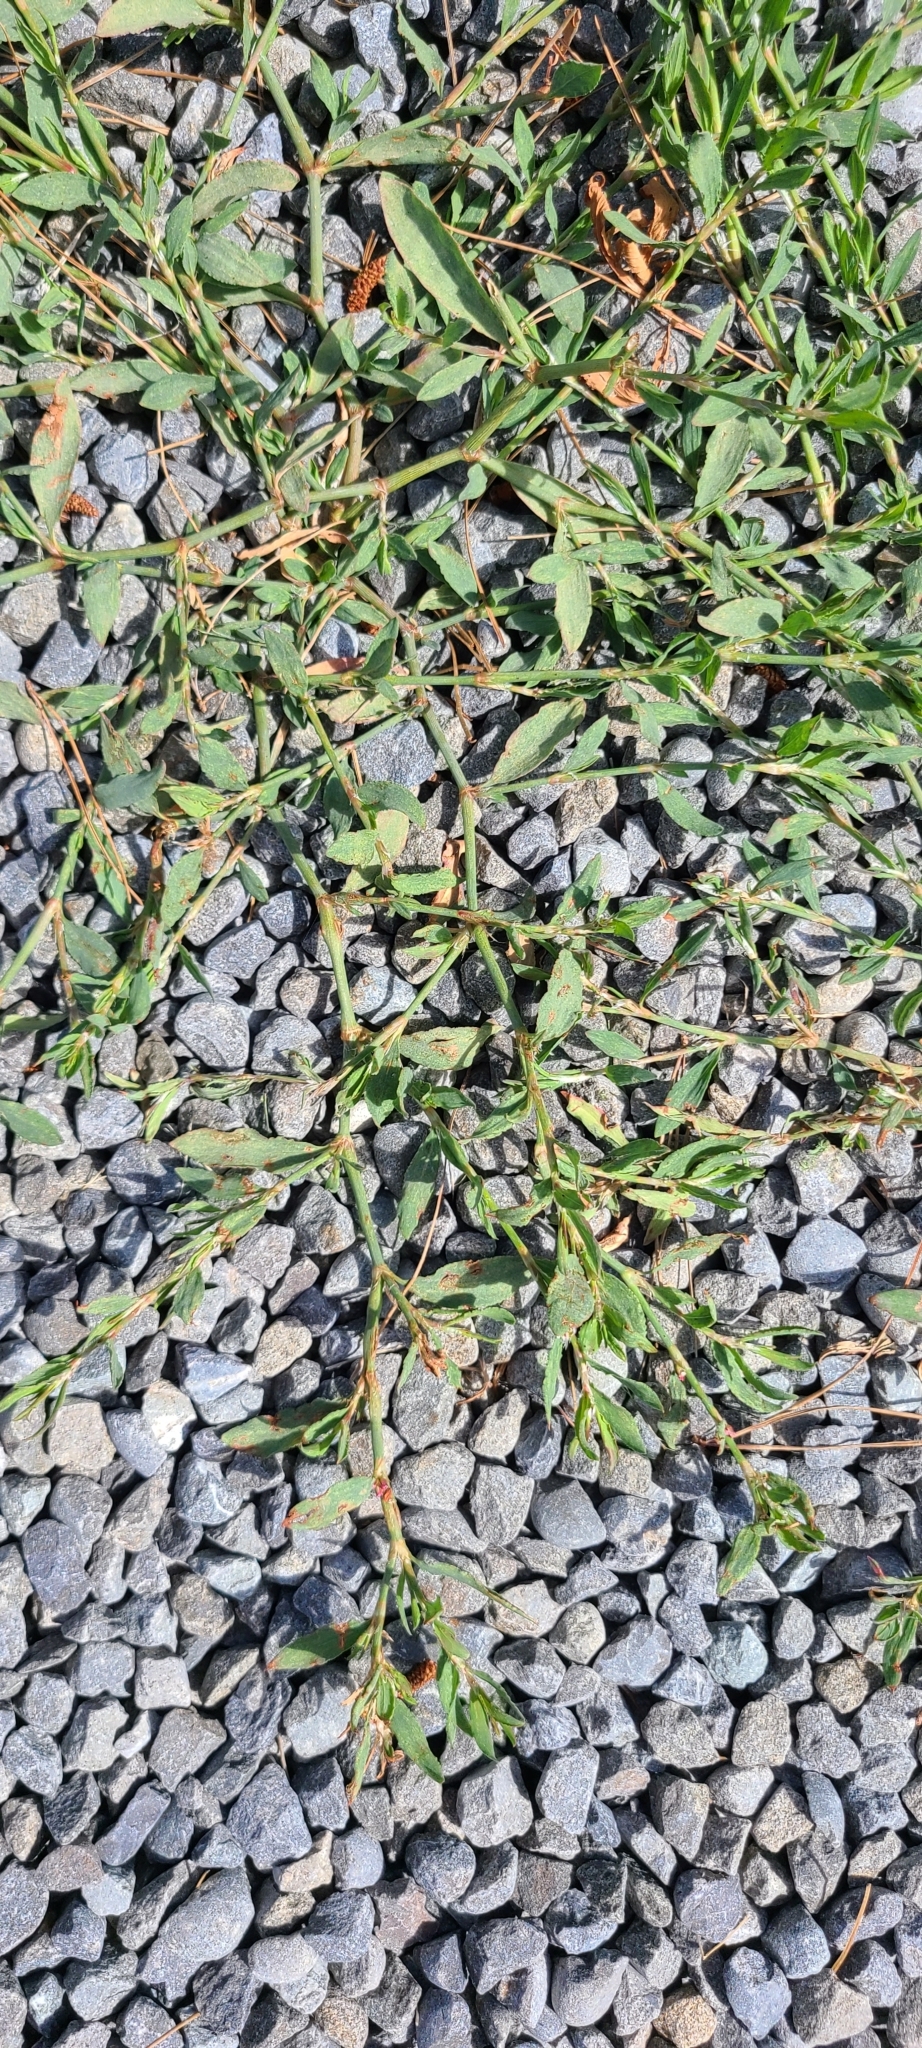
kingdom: Plantae
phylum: Tracheophyta
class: Magnoliopsida
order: Caryophyllales
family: Polygonaceae
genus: Polygonum
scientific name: Polygonum aviculare
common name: Prostrate knotweed
